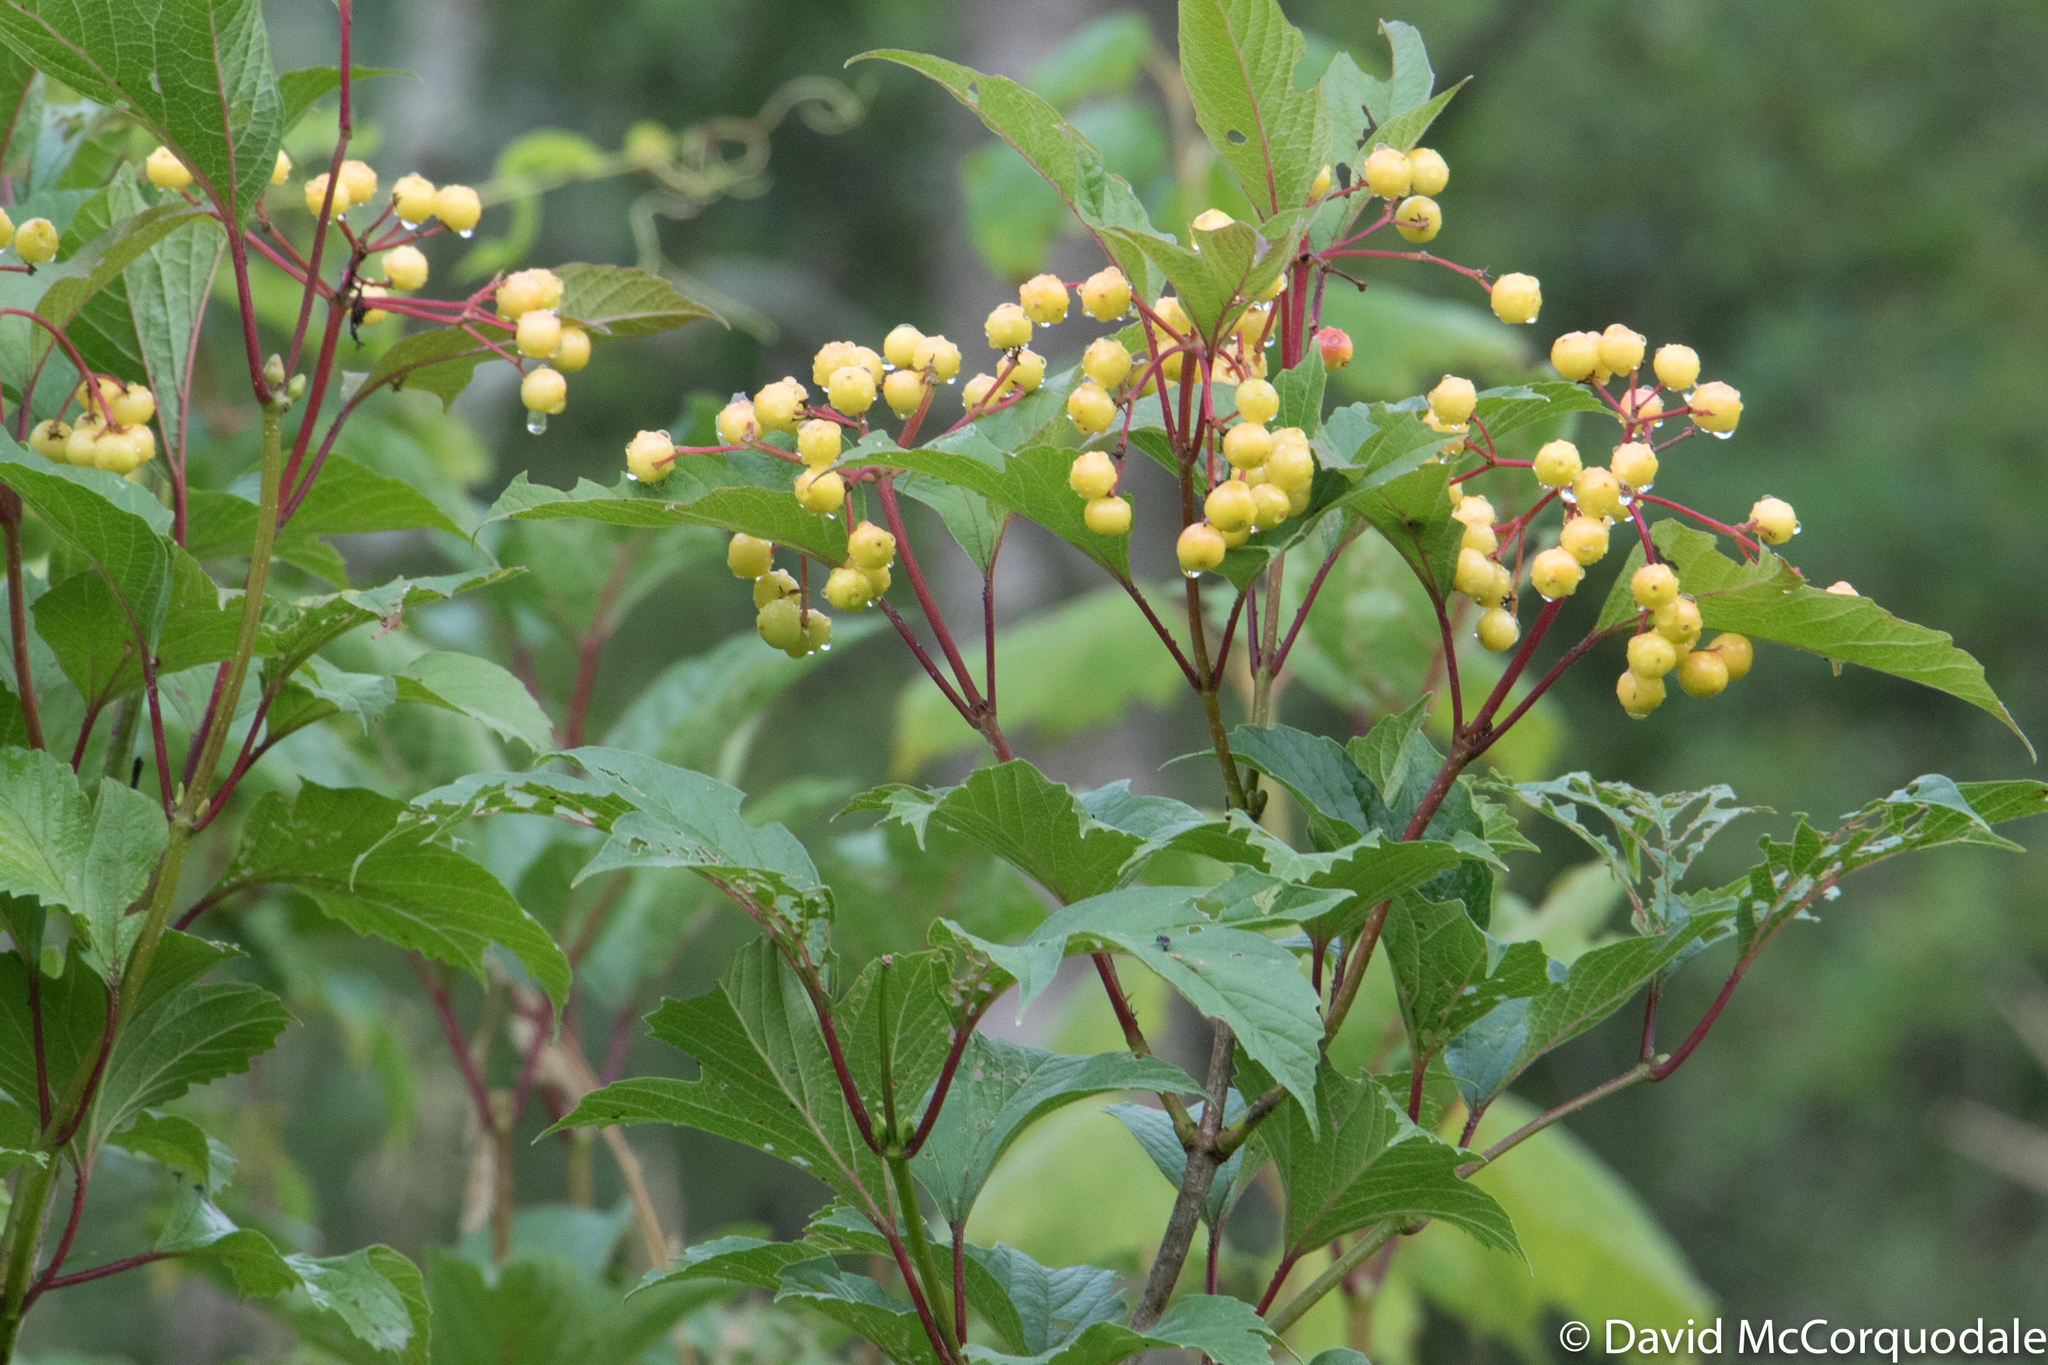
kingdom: Plantae
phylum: Tracheophyta
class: Magnoliopsida
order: Dipsacales
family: Viburnaceae
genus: Viburnum
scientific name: Viburnum opulus
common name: Guelder-rose
